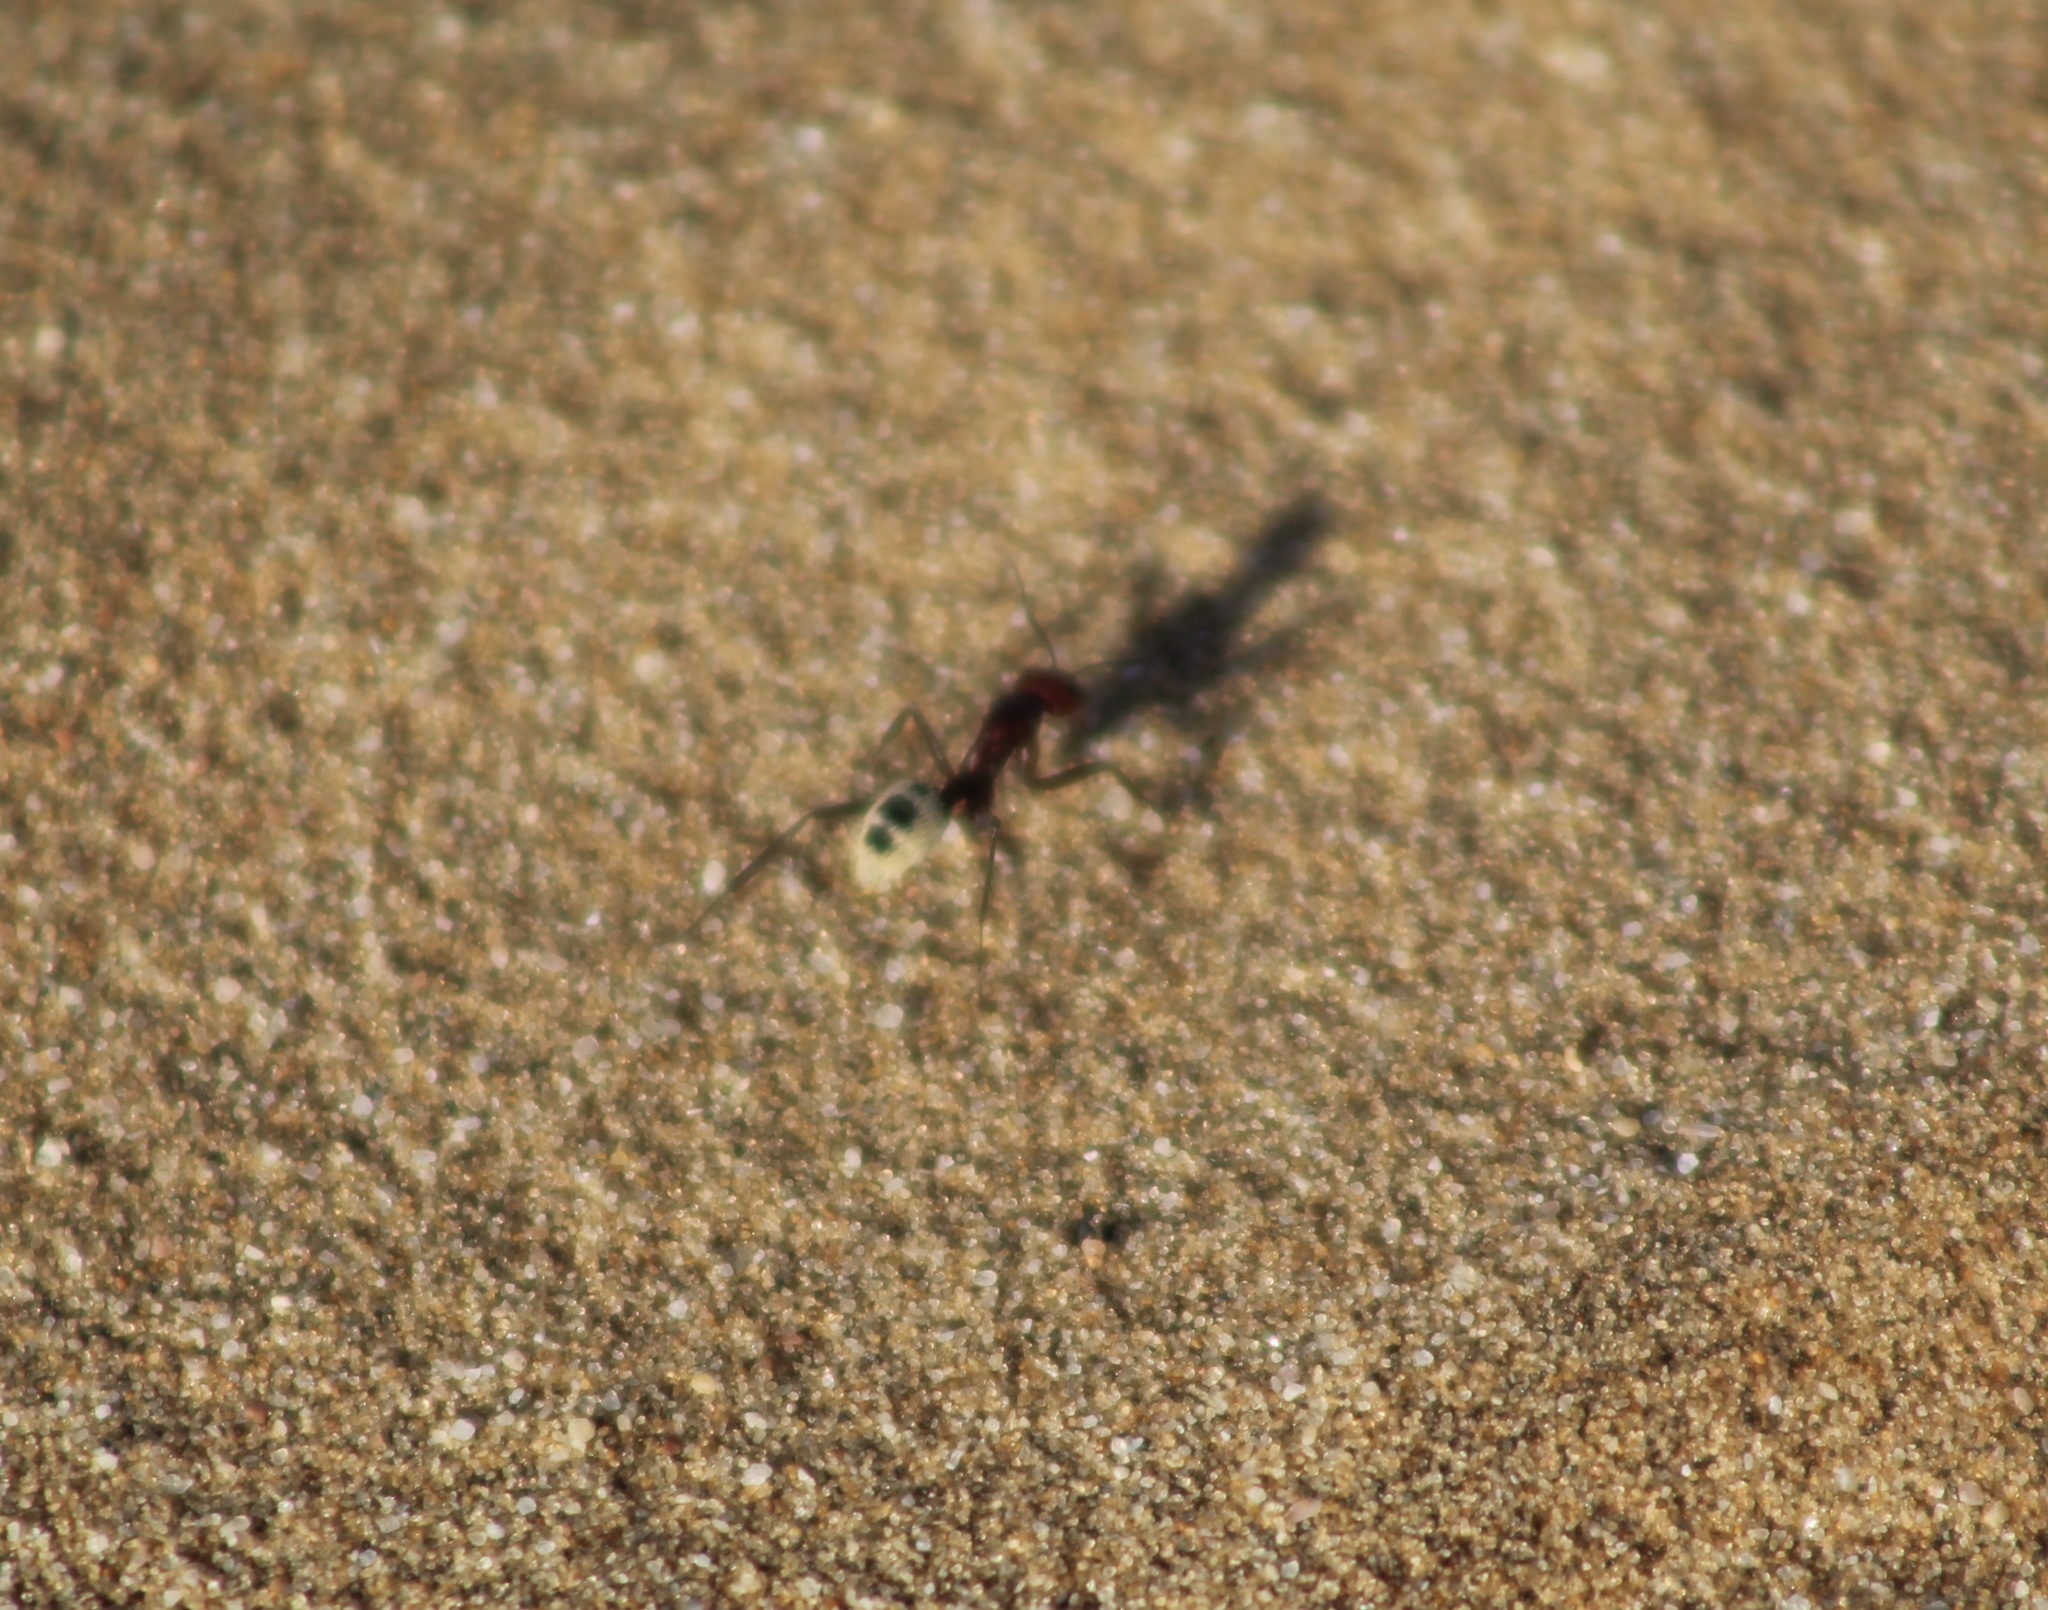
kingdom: Animalia
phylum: Arthropoda
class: Insecta
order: Hymenoptera
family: Formicidae
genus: Camponotus
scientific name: Camponotus detritus
